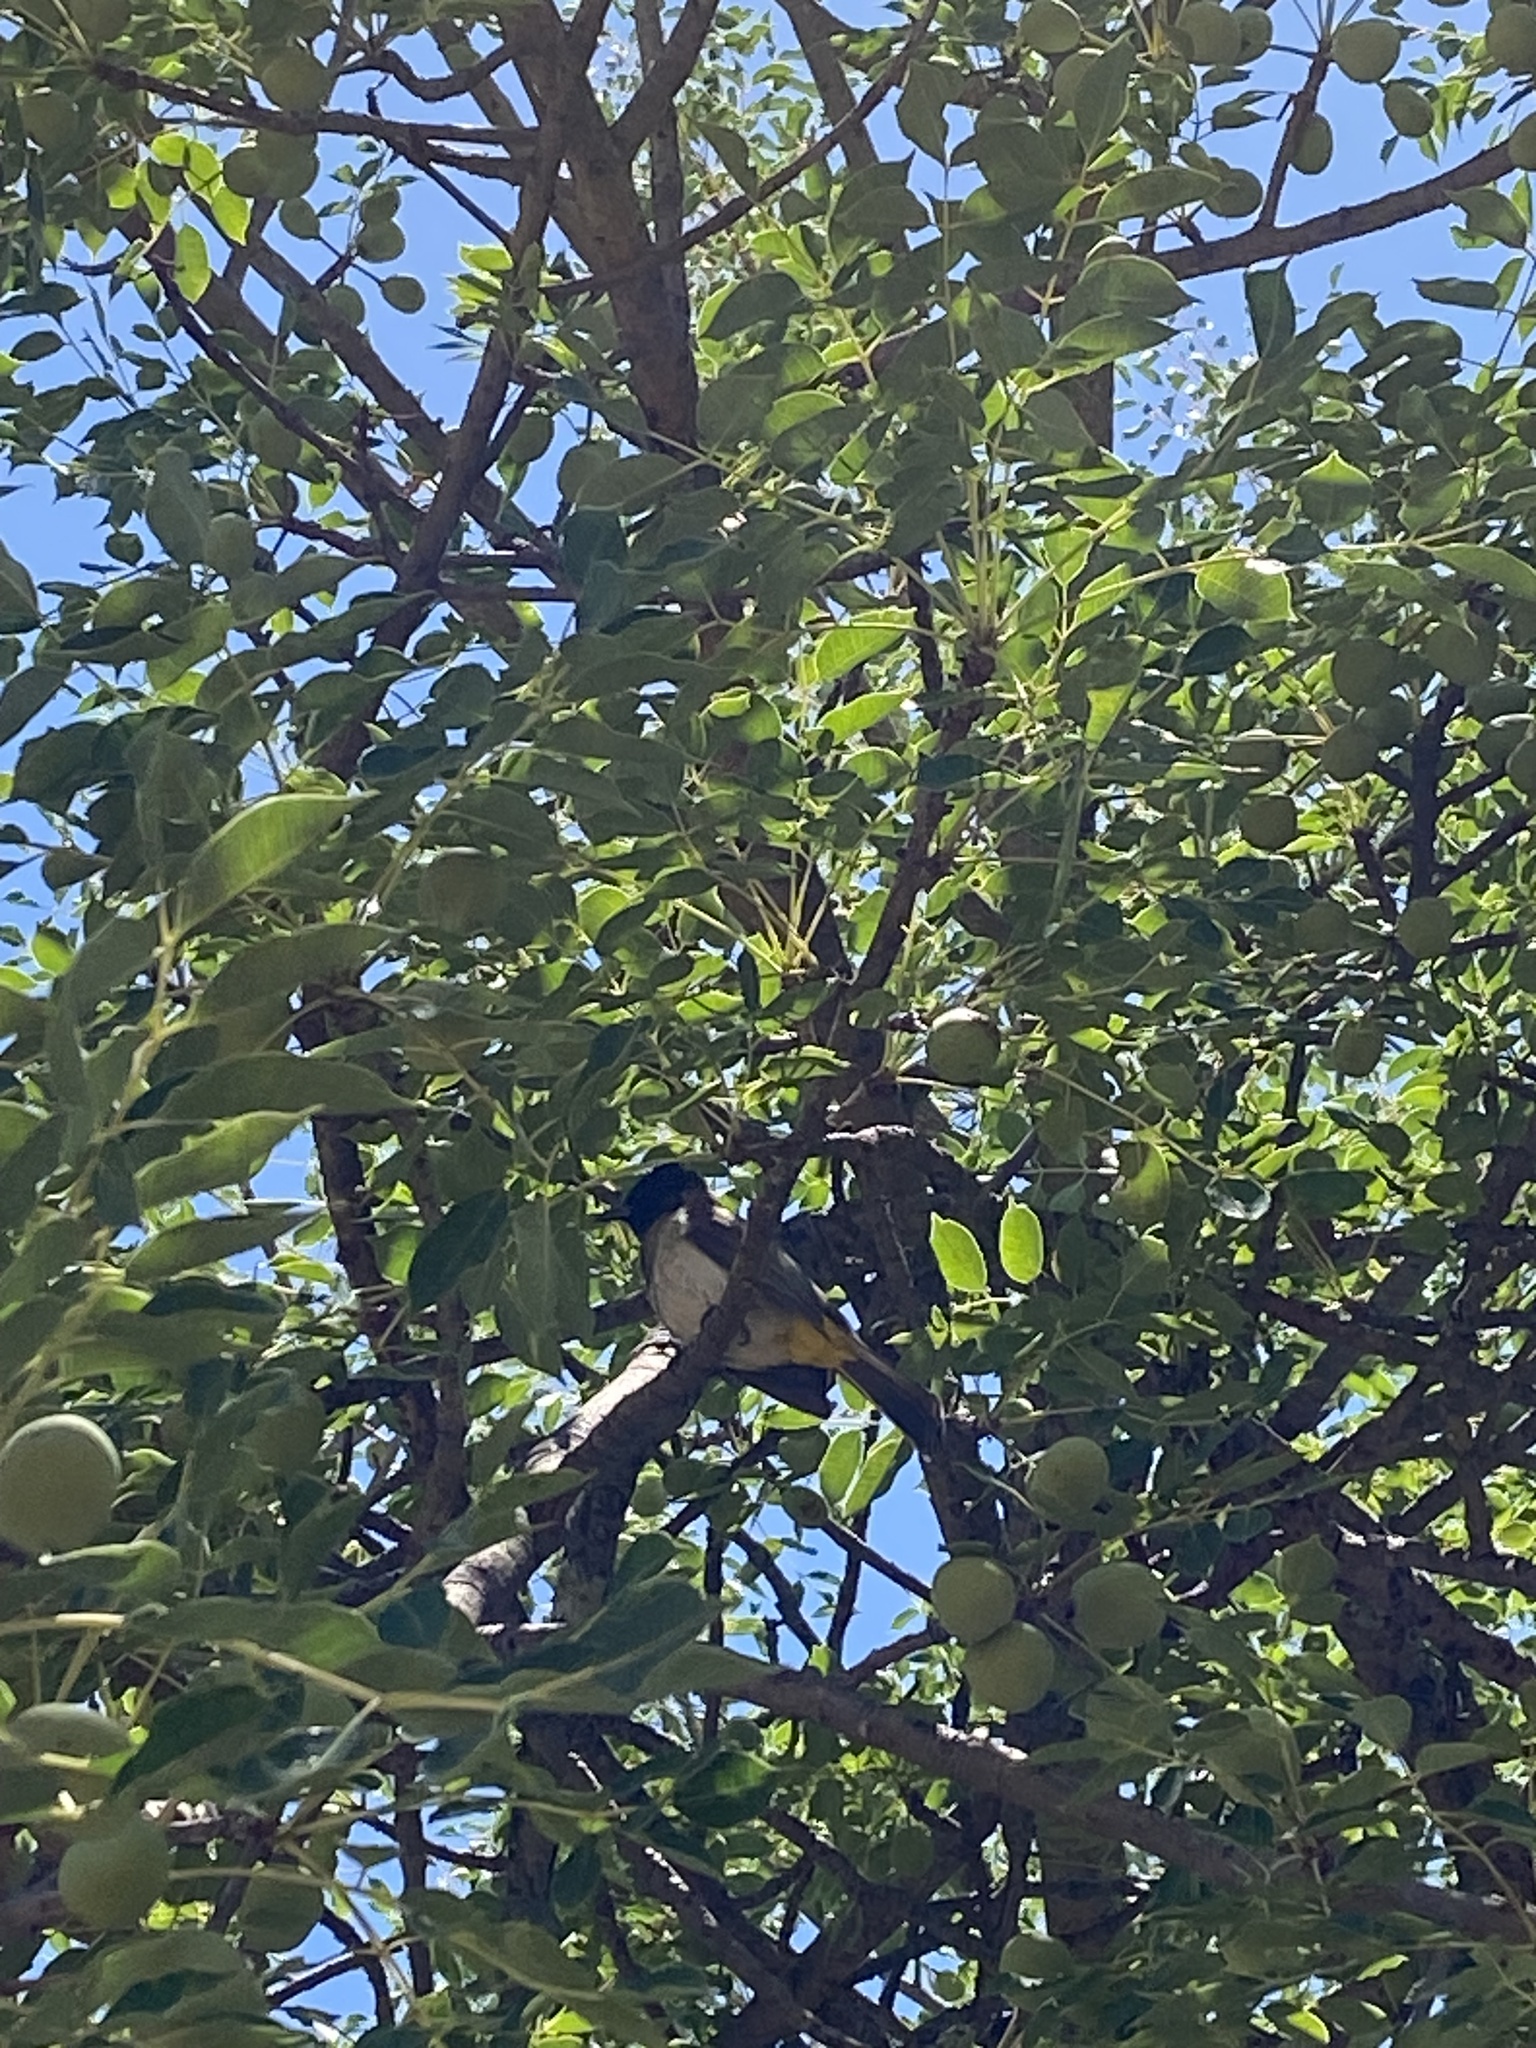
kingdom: Animalia
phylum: Chordata
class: Aves
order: Passeriformes
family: Pycnonotidae
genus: Pycnonotus
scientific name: Pycnonotus barbatus
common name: Common bulbul
